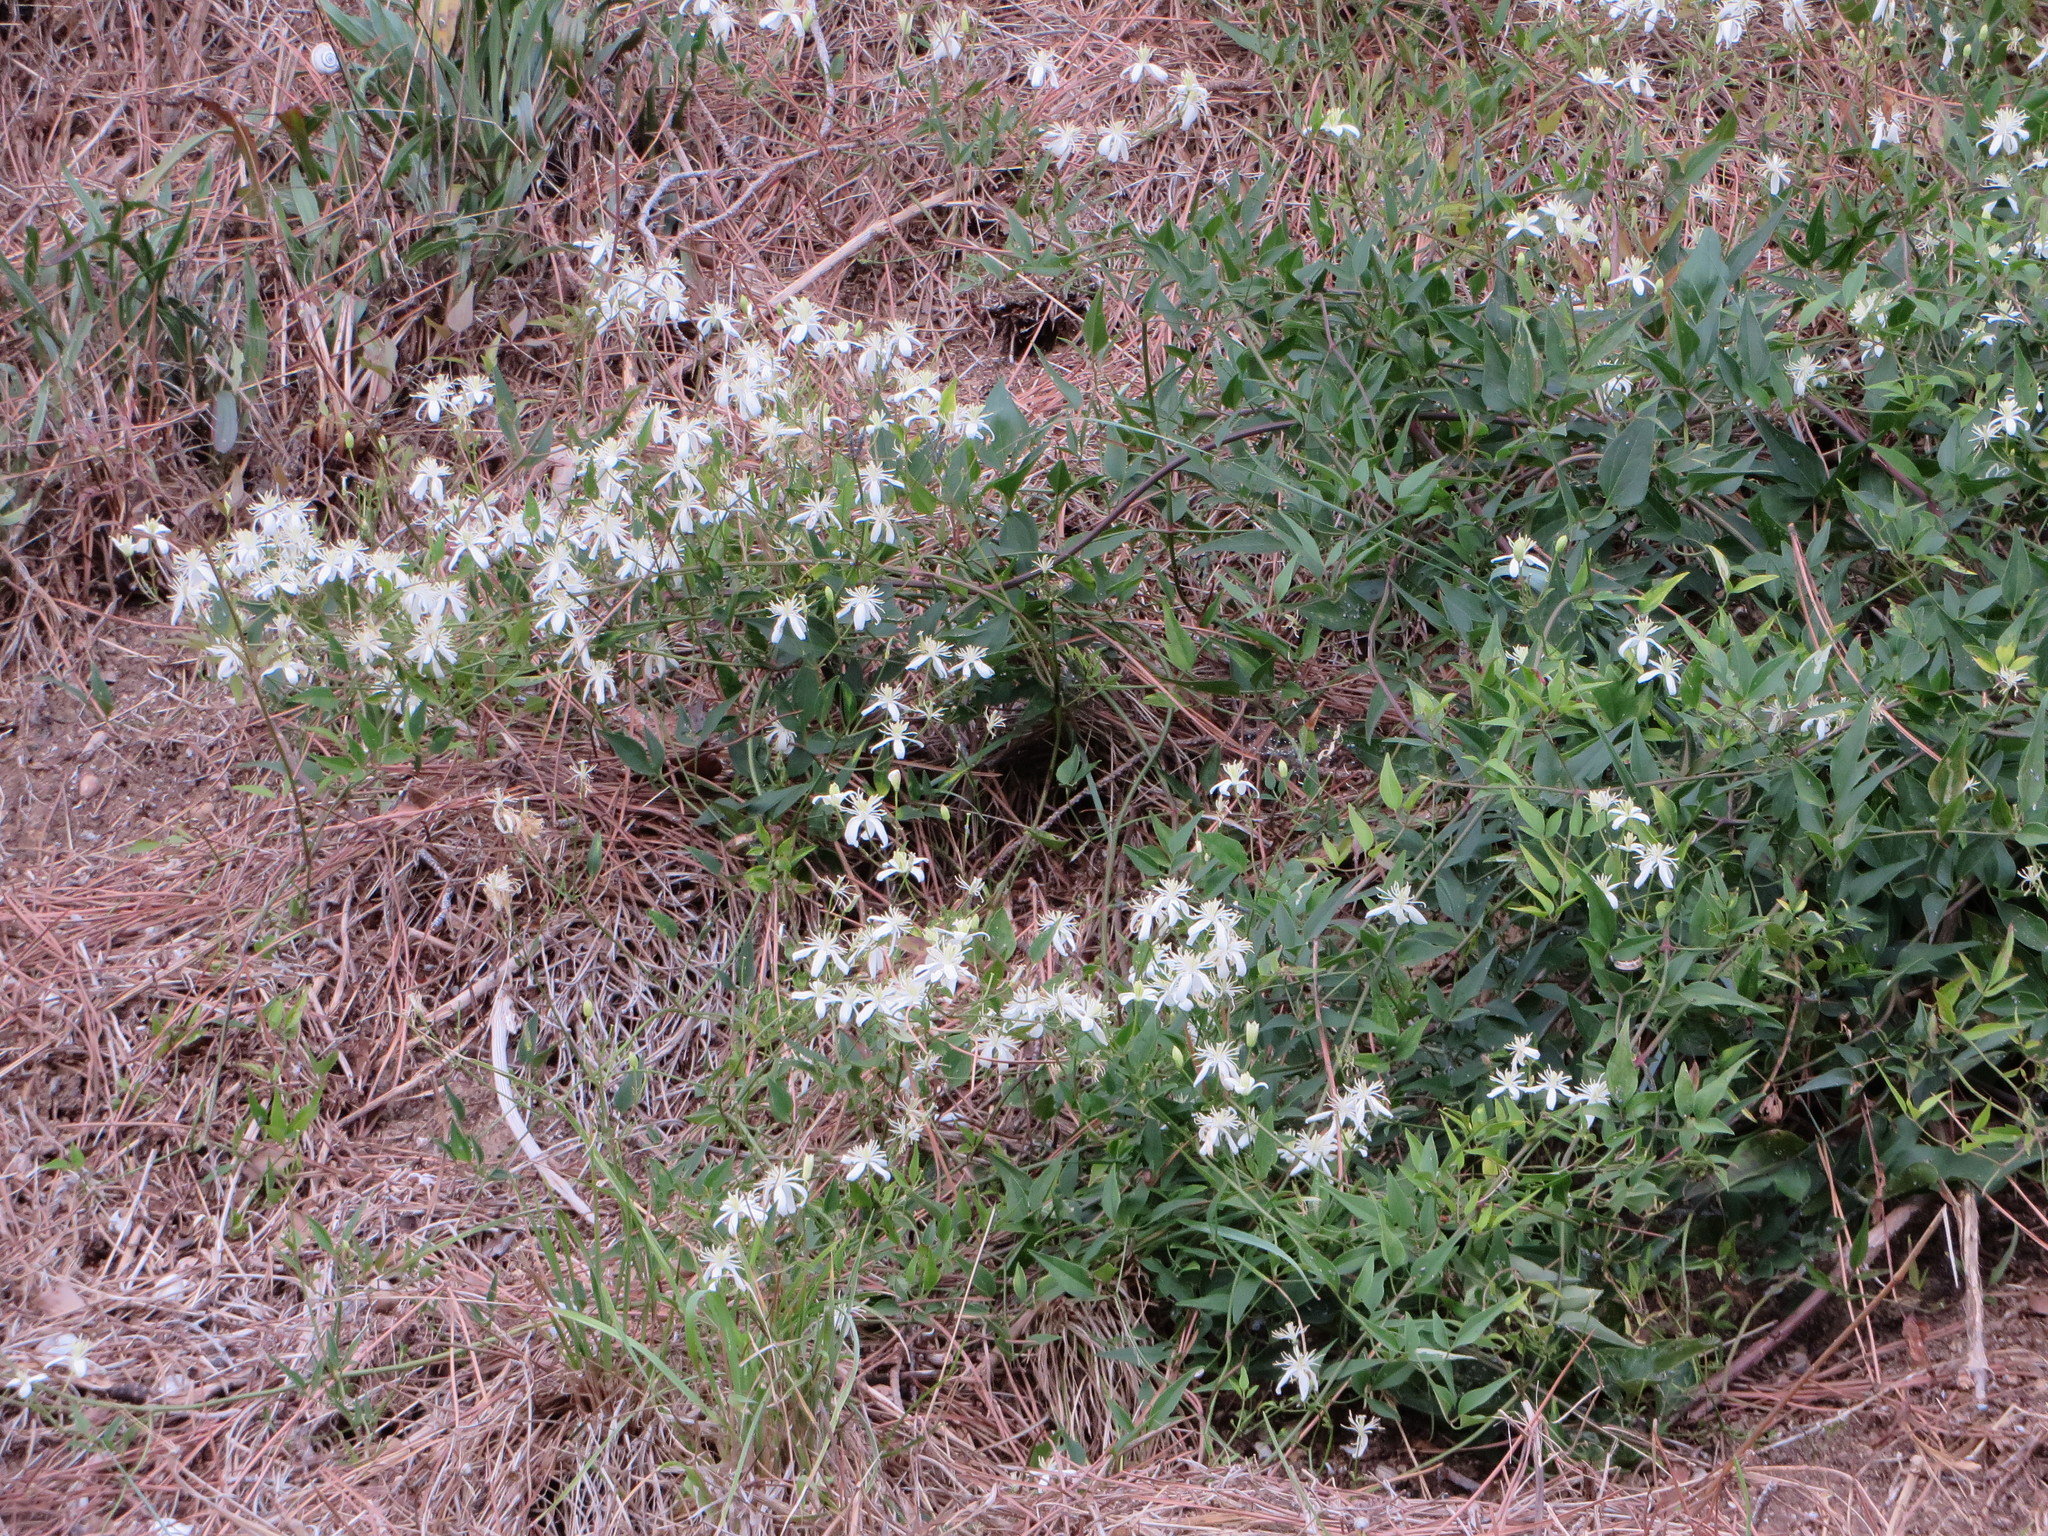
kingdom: Plantae
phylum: Tracheophyta
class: Magnoliopsida
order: Ranunculales
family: Ranunculaceae
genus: Clematis
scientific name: Clematis flammula
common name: Virgin's-bower
